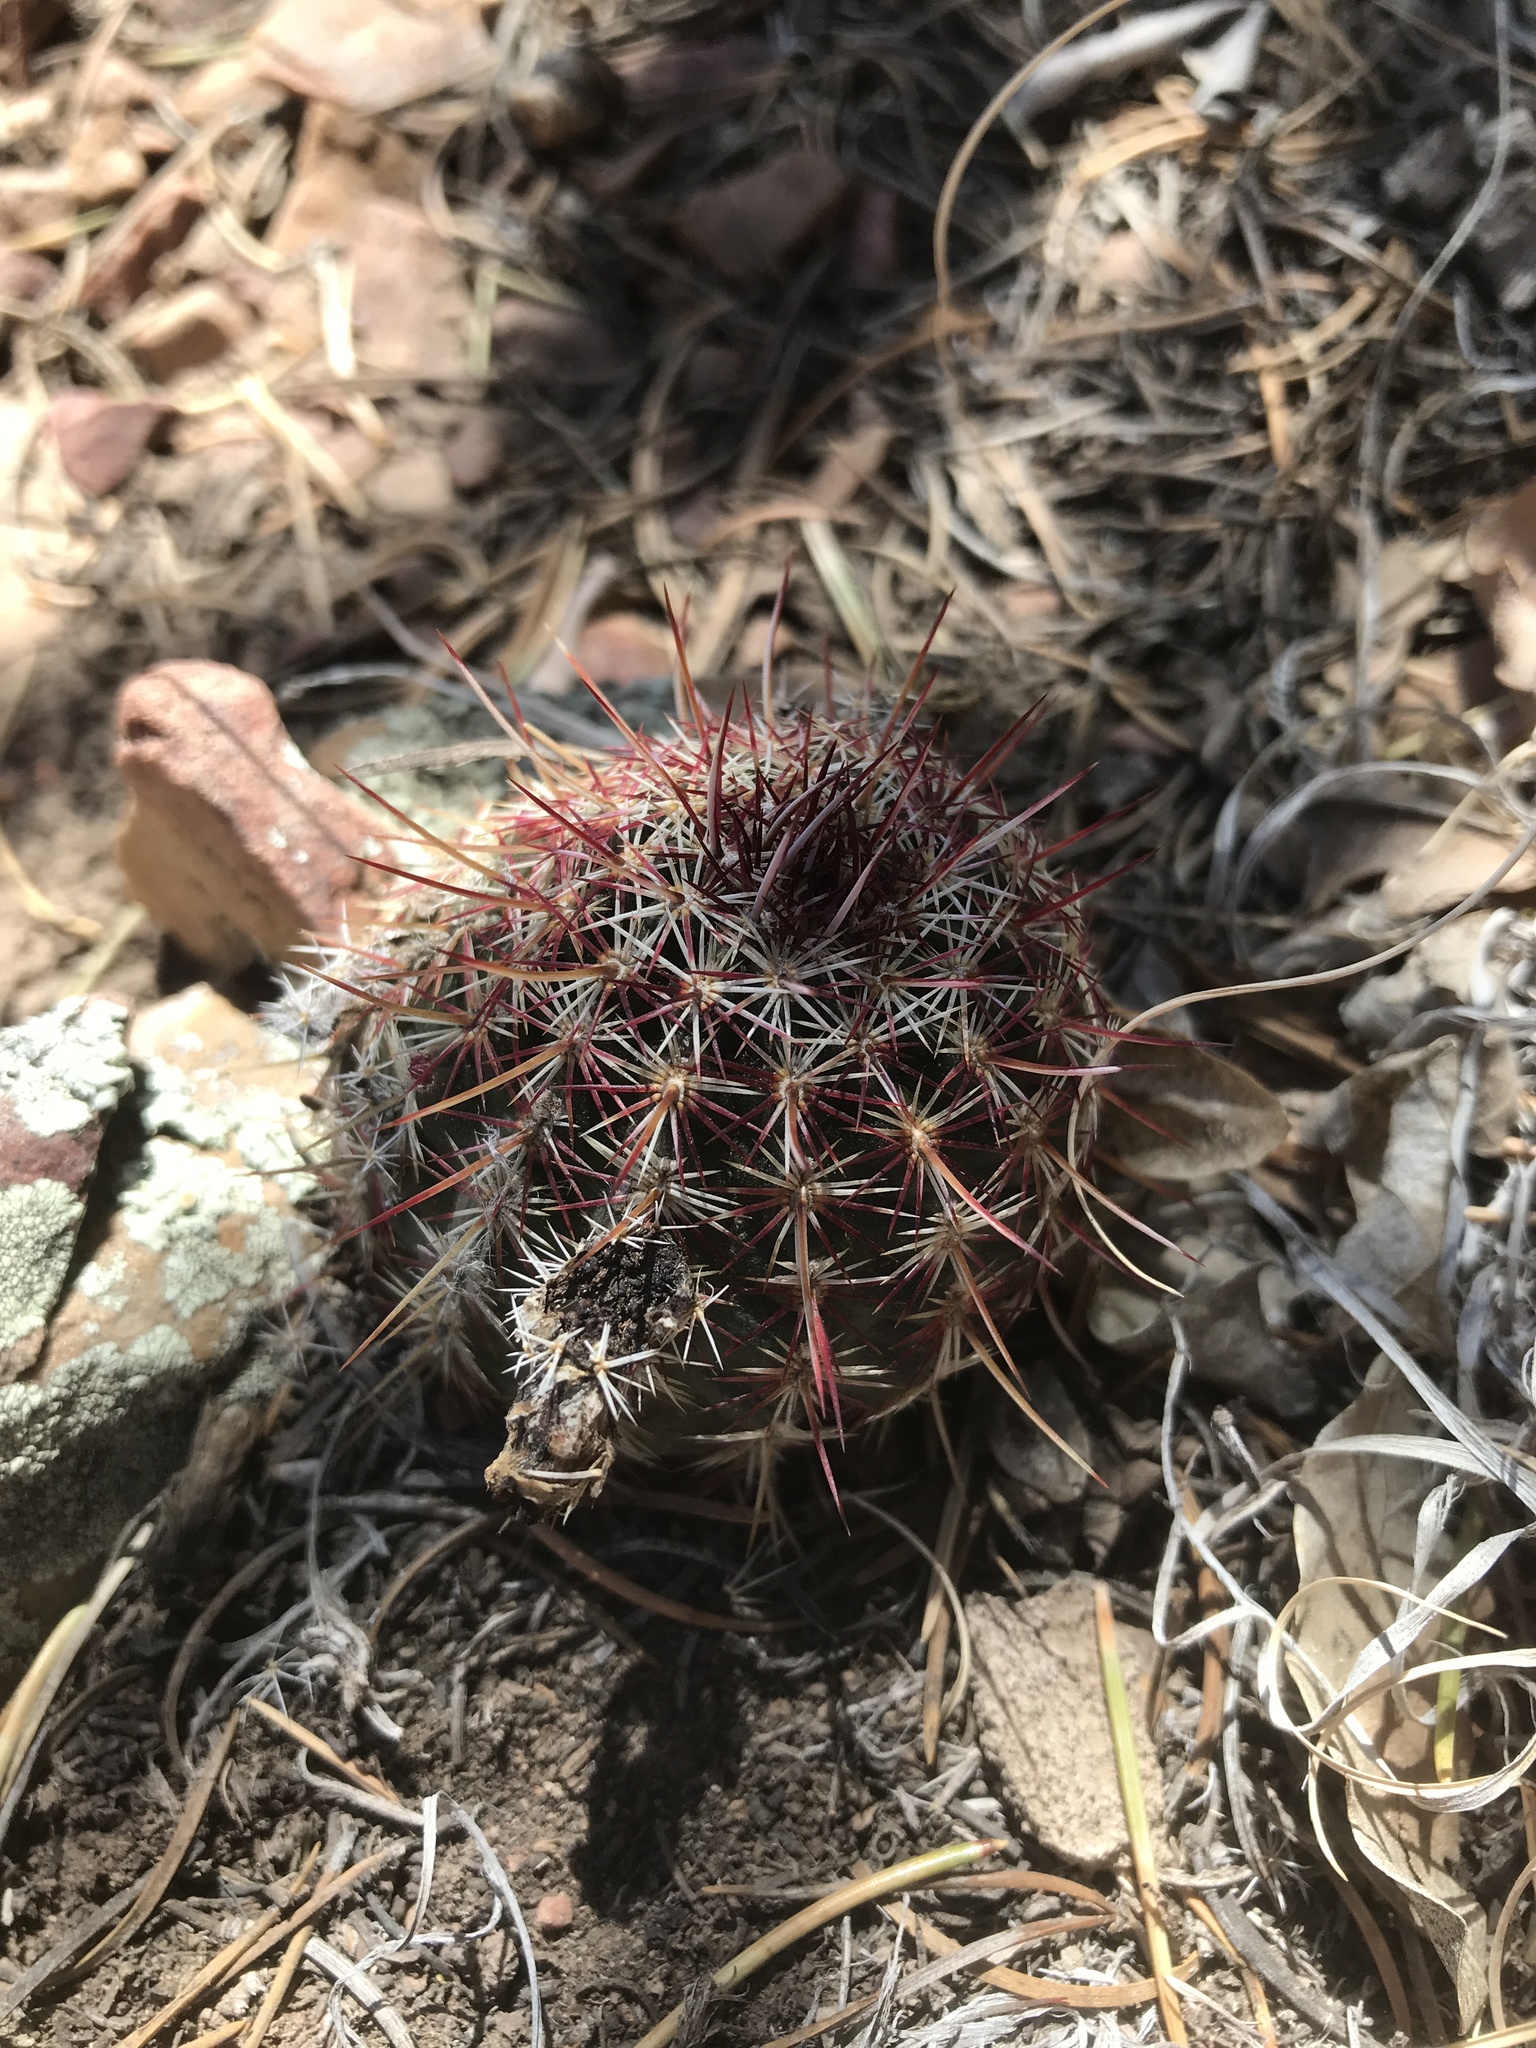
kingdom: Plantae
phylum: Tracheophyta
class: Magnoliopsida
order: Caryophyllales
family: Cactaceae
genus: Echinocereus
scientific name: Echinocereus viridiflorus
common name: Nylon hedgehog cactus
